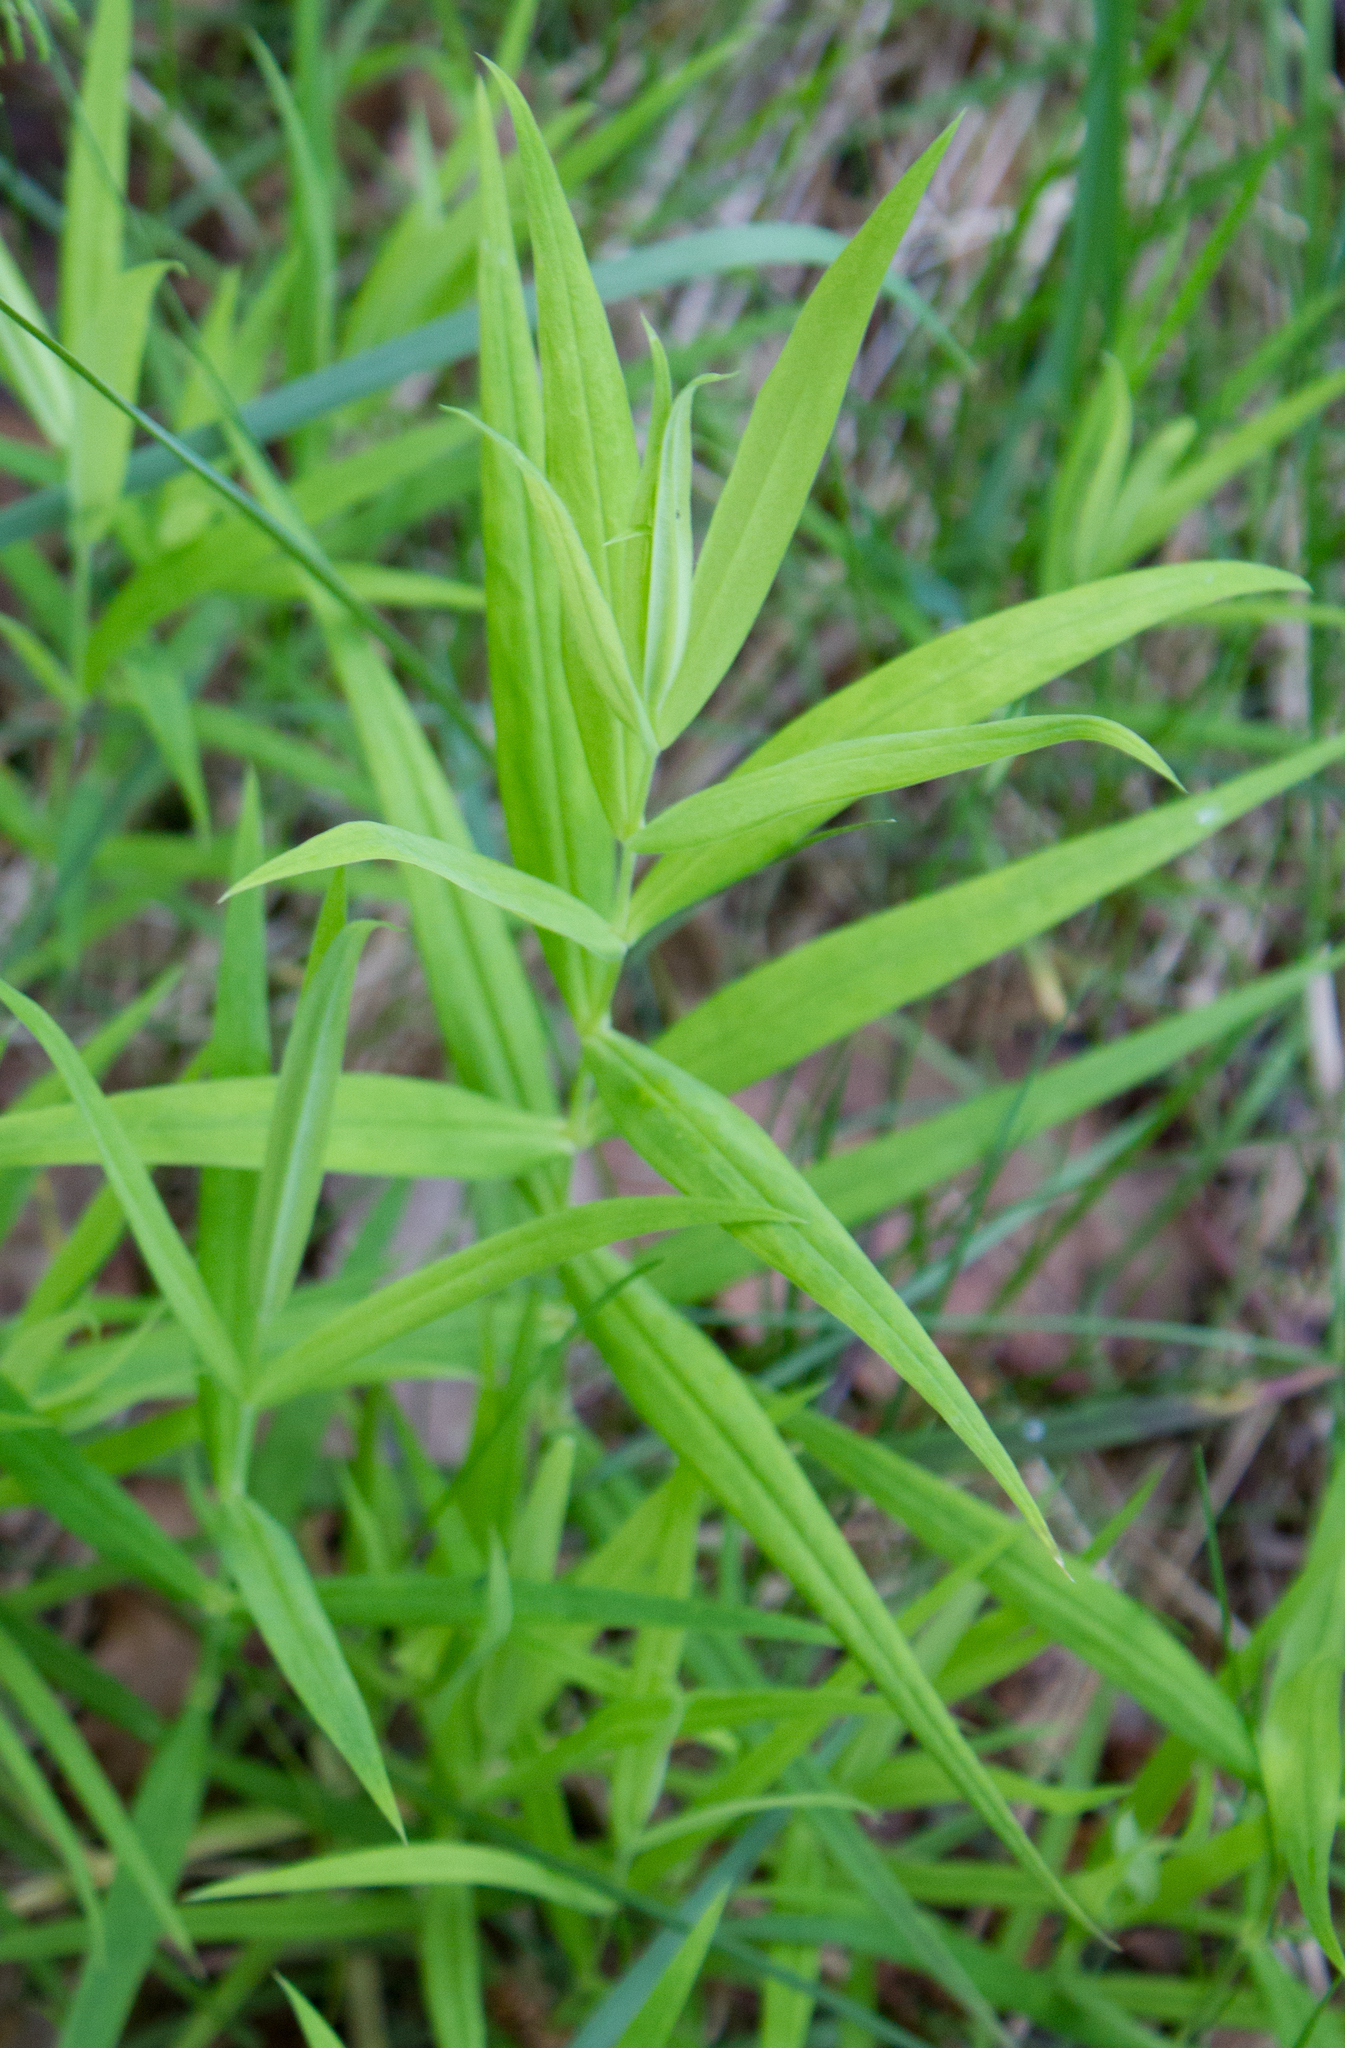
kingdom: Plantae
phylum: Tracheophyta
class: Magnoliopsida
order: Caryophyllales
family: Caryophyllaceae
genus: Rabelera
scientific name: Rabelera holostea
